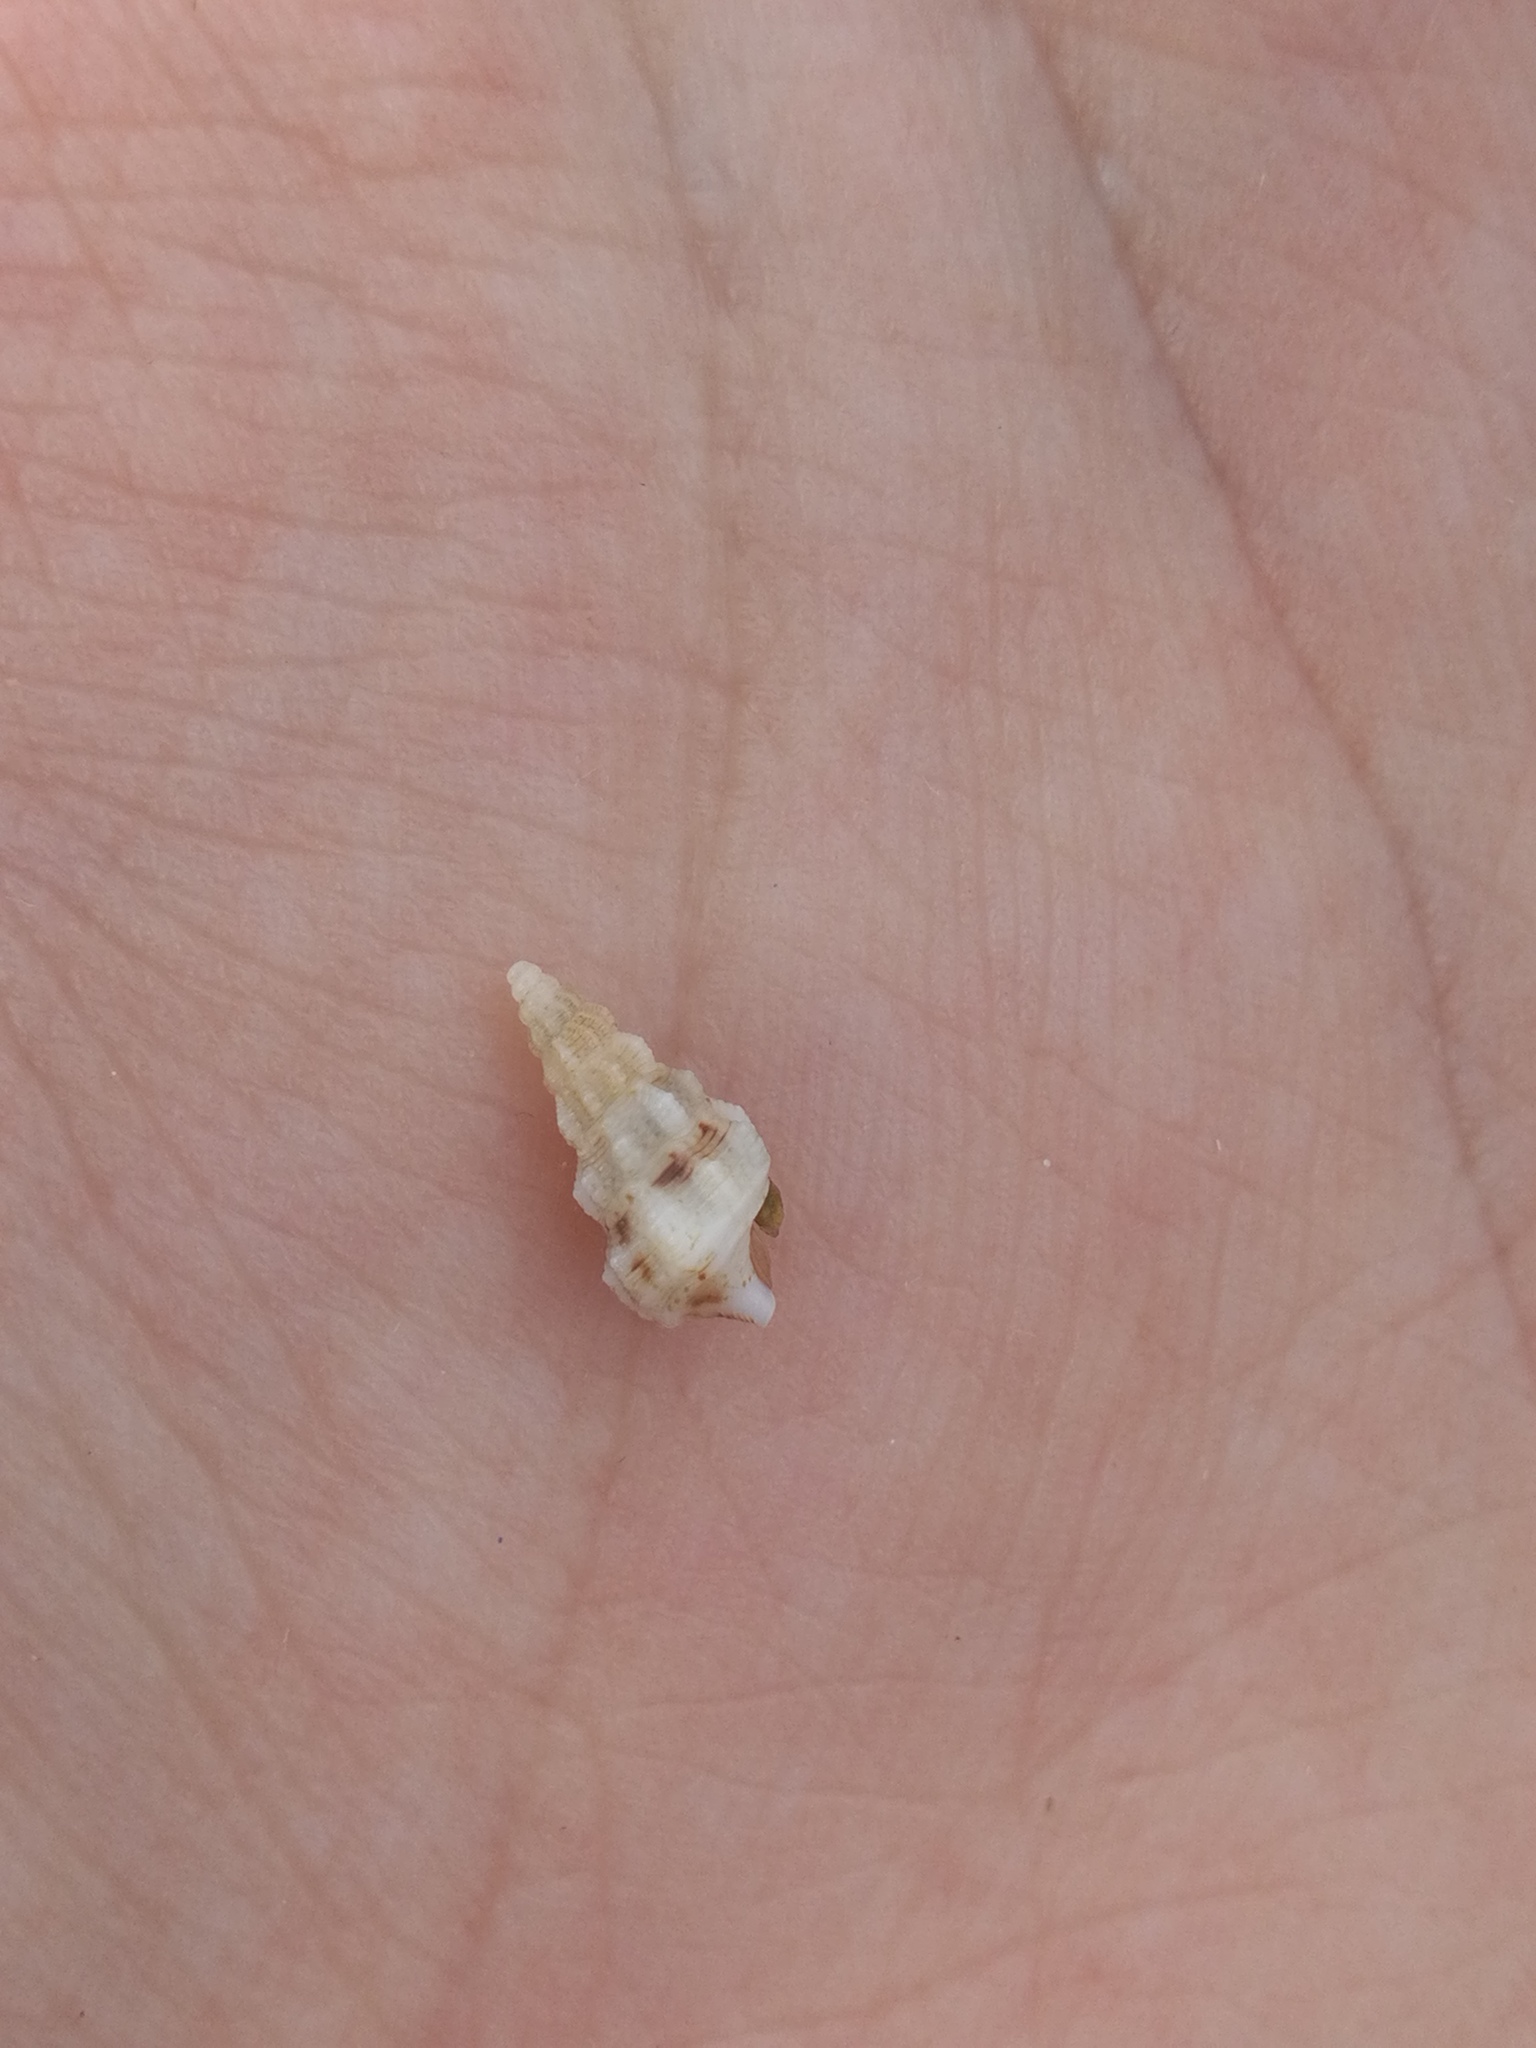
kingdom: Animalia
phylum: Mollusca
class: Gastropoda
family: Cerithiidae
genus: Cerithium
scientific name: Cerithium vulgatum
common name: European cerith
